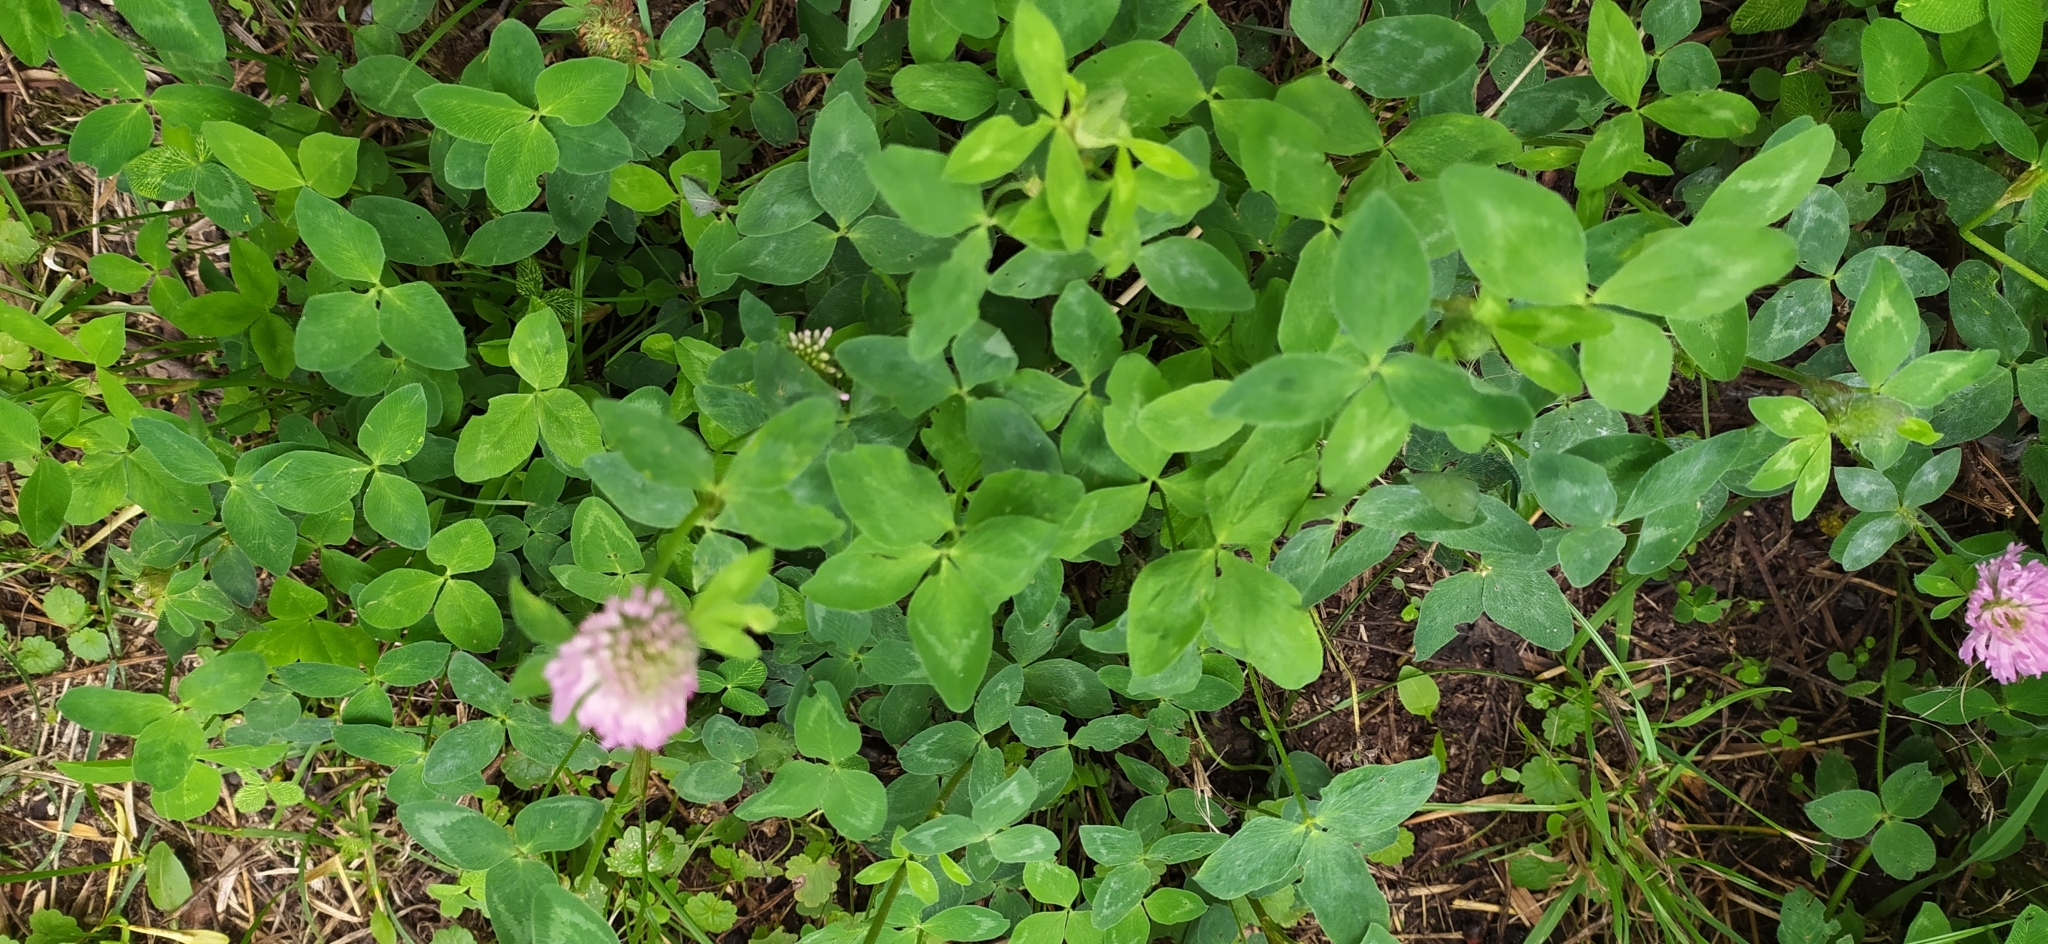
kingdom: Plantae
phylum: Tracheophyta
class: Magnoliopsida
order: Fabales
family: Fabaceae
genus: Trifolium
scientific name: Trifolium pratense
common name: Red clover
